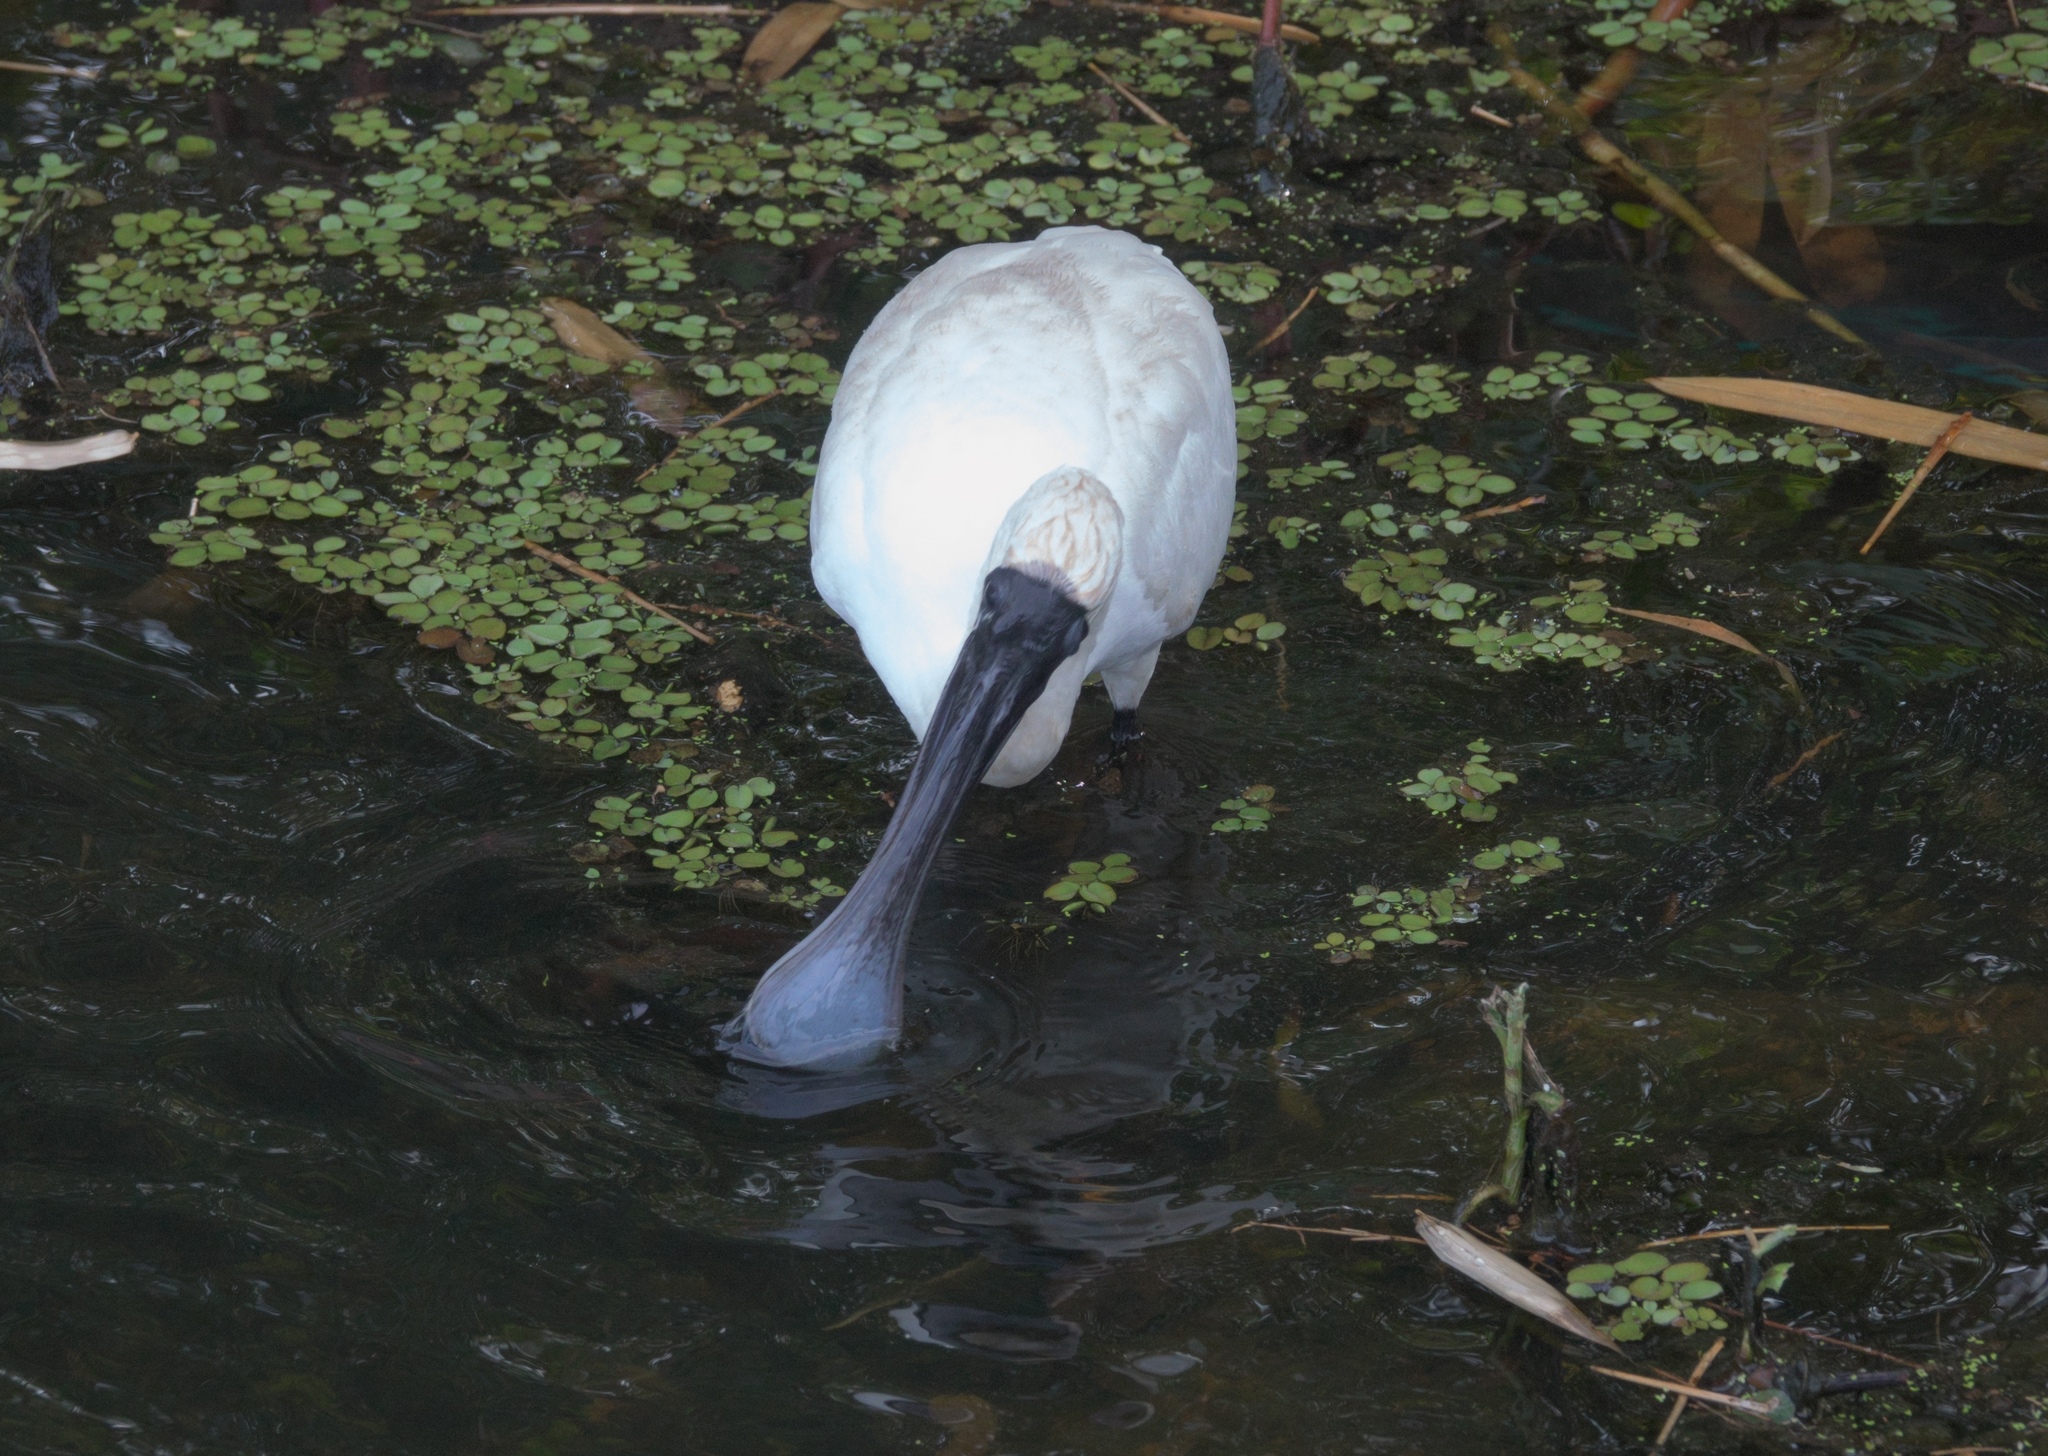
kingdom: Animalia
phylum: Chordata
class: Aves
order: Pelecaniformes
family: Threskiornithidae
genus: Platalea
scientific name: Platalea regia
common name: Royal spoonbill
